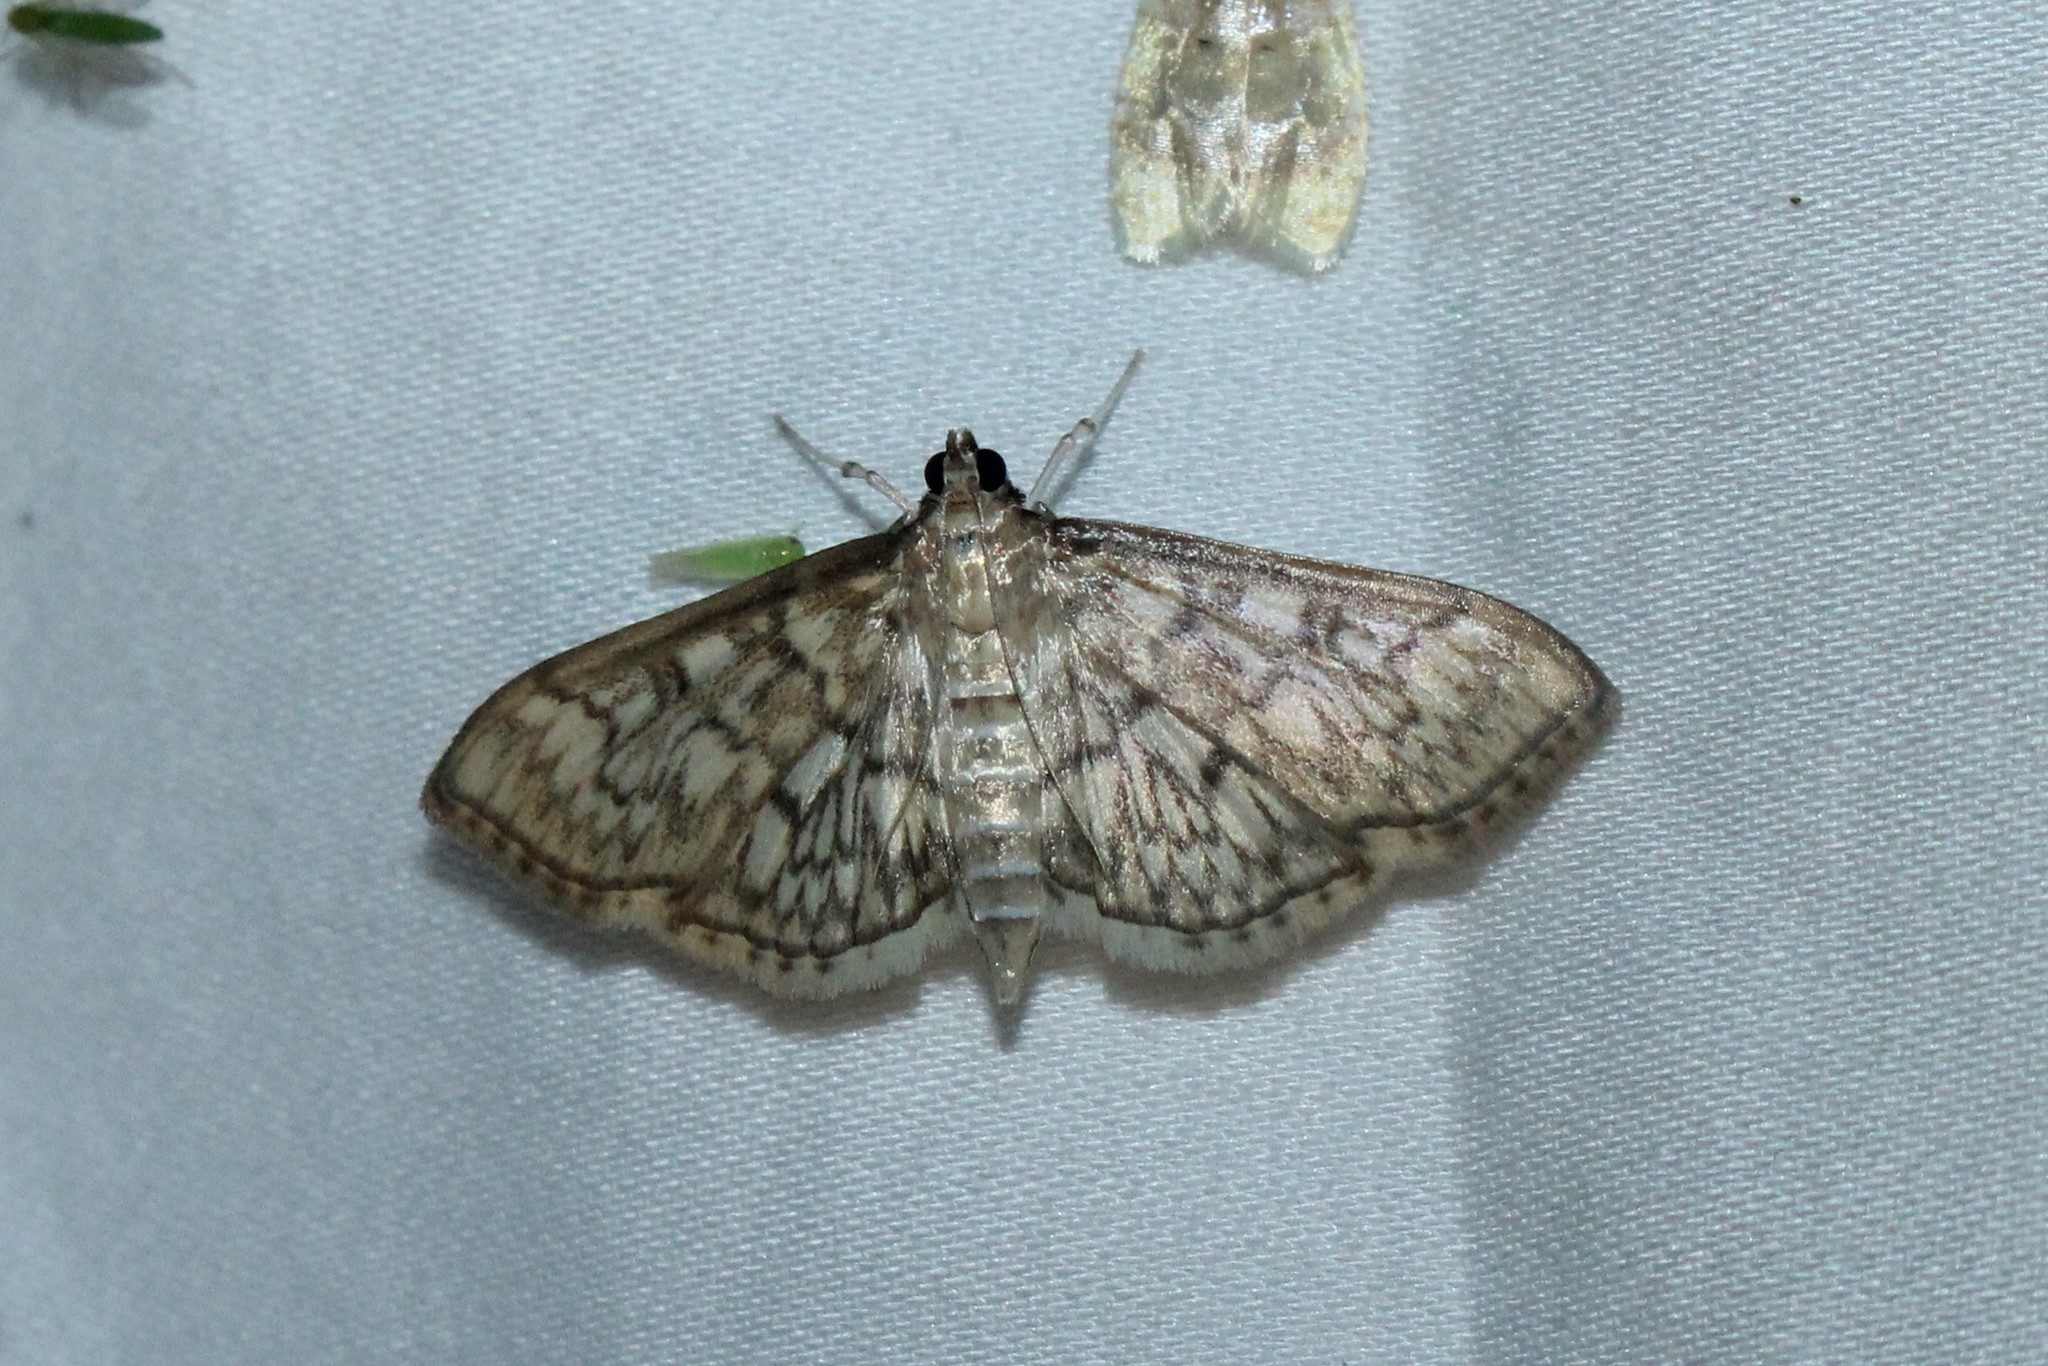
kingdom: Animalia
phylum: Arthropoda
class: Insecta
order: Lepidoptera
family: Crambidae
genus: Herpetogramma
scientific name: Herpetogramma pertextalis
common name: Bold-feathered grass moth
